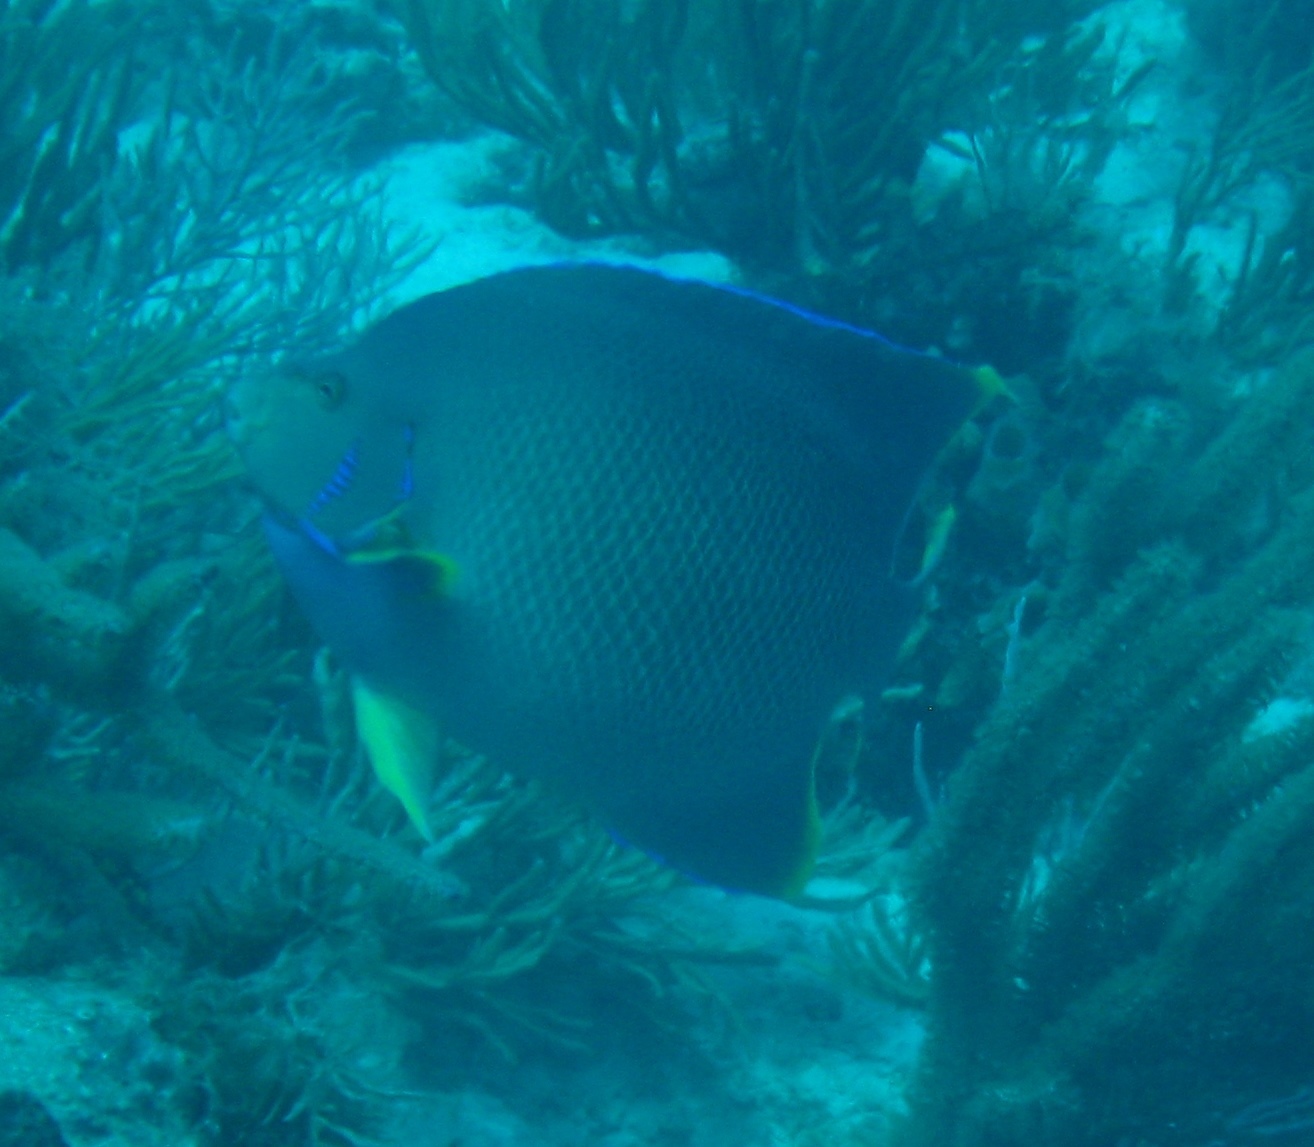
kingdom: Animalia
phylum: Chordata
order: Perciformes
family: Pomacanthidae
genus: Holacanthus
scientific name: Holacanthus bermudensis
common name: Blue angelfish
